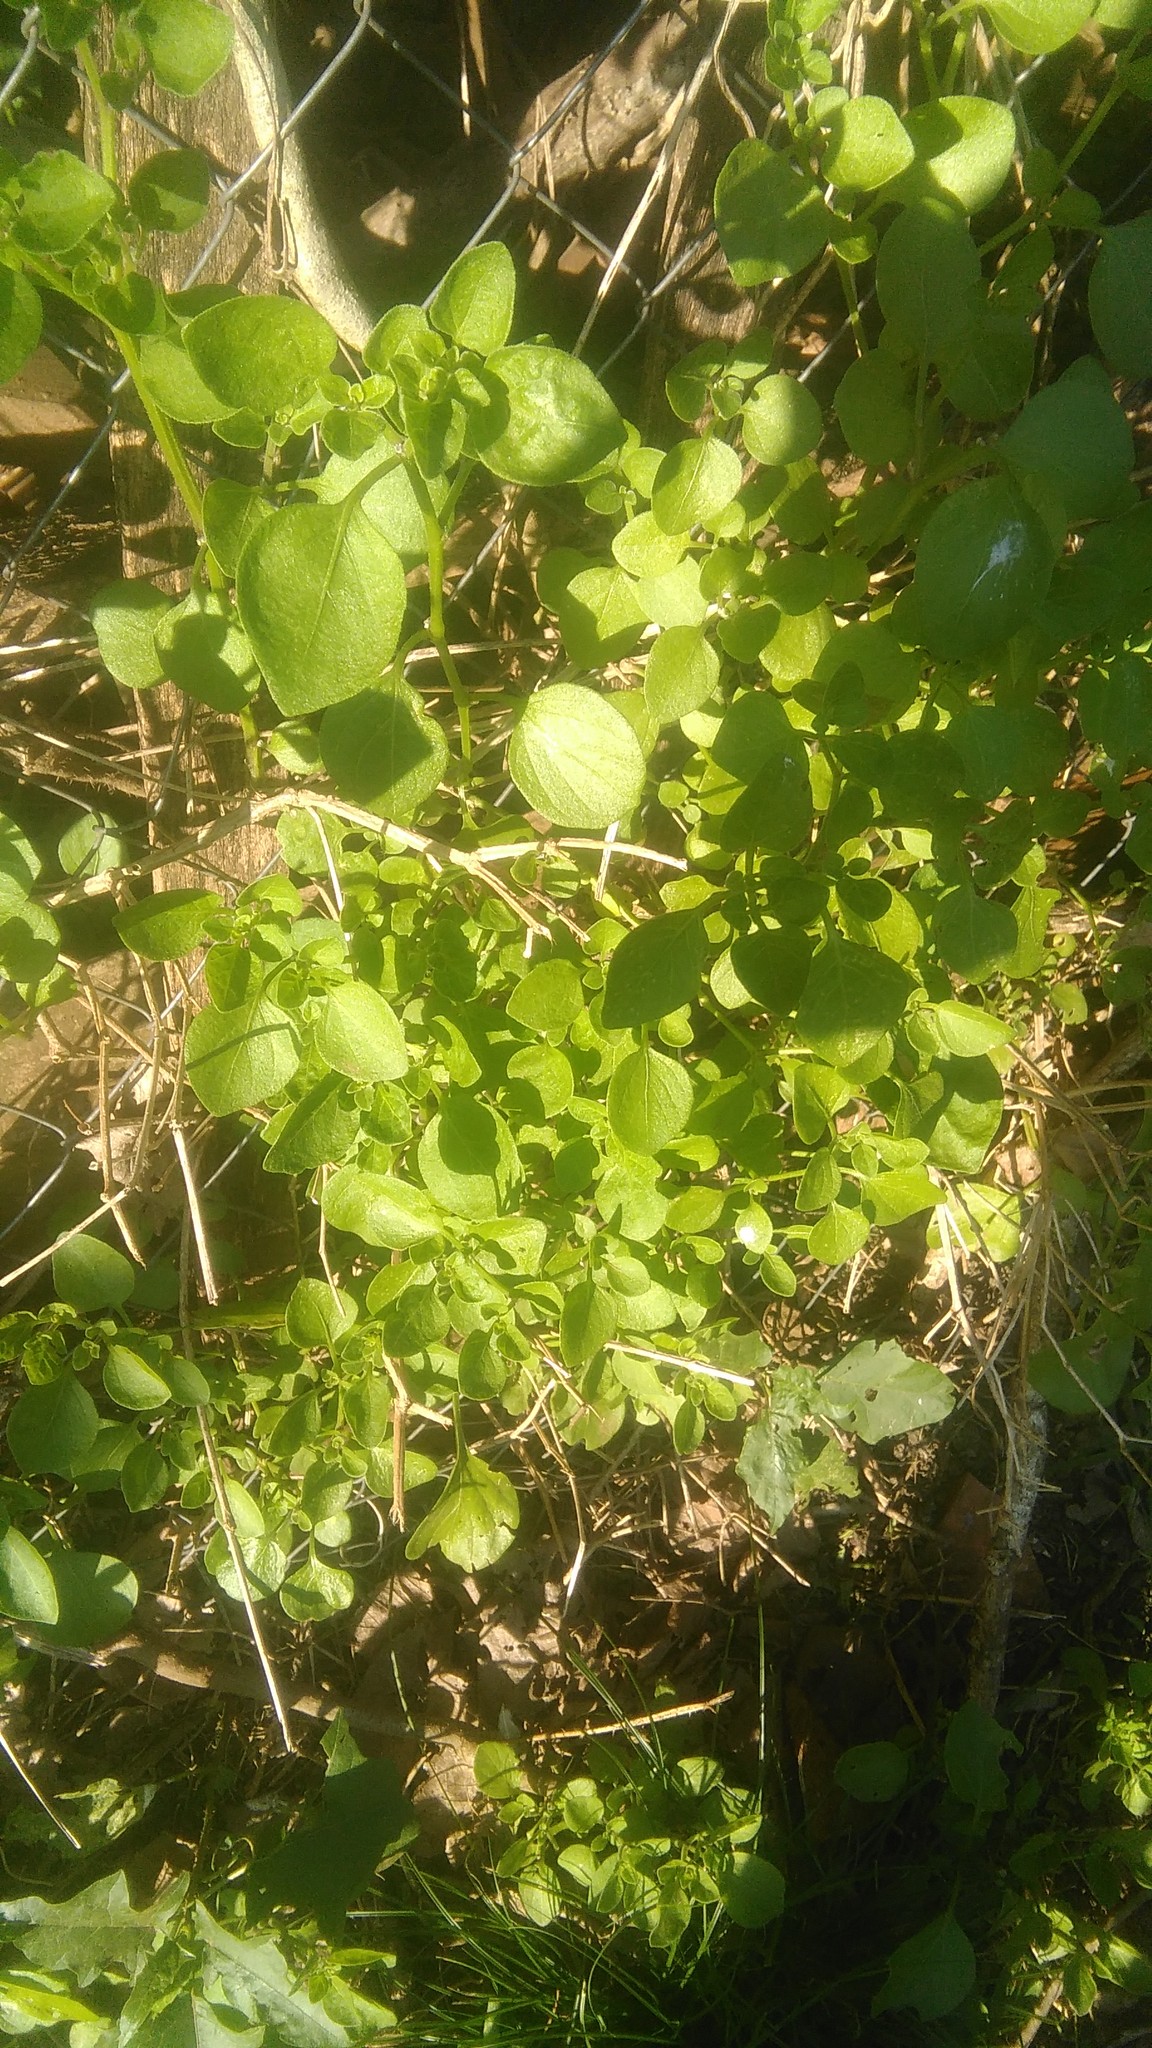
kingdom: Plantae
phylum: Tracheophyta
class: Magnoliopsida
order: Solanales
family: Solanaceae
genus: Salpichroa
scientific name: Salpichroa origanifolia
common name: Lily-of-the-valley-vine
